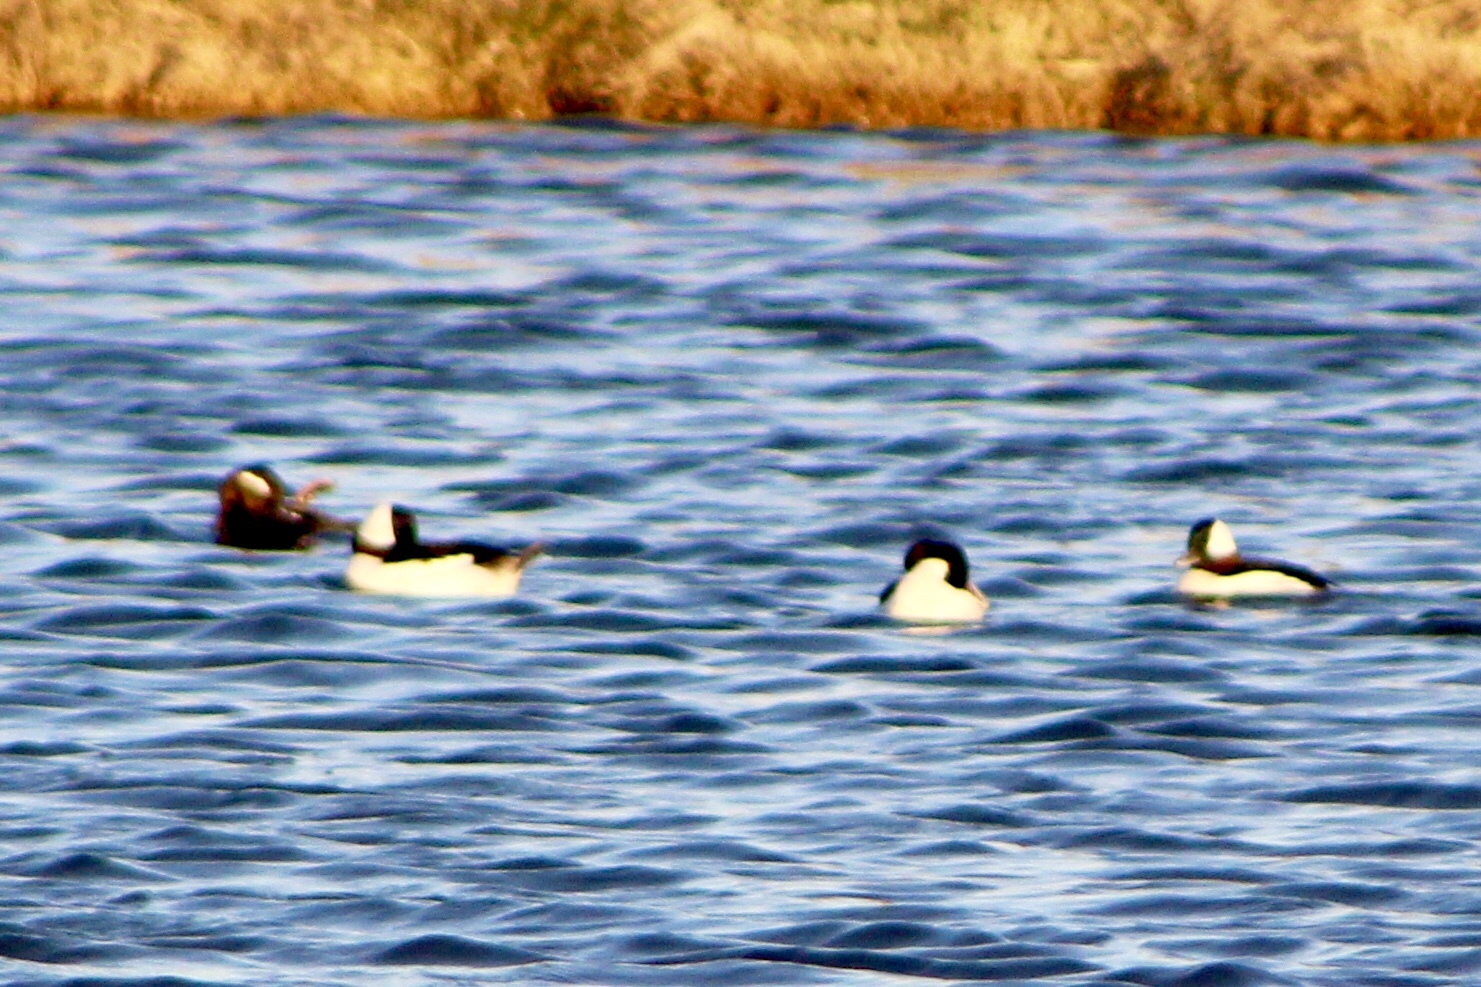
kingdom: Animalia
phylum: Chordata
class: Aves
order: Anseriformes
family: Anatidae
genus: Bucephala
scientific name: Bucephala albeola
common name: Bufflehead
